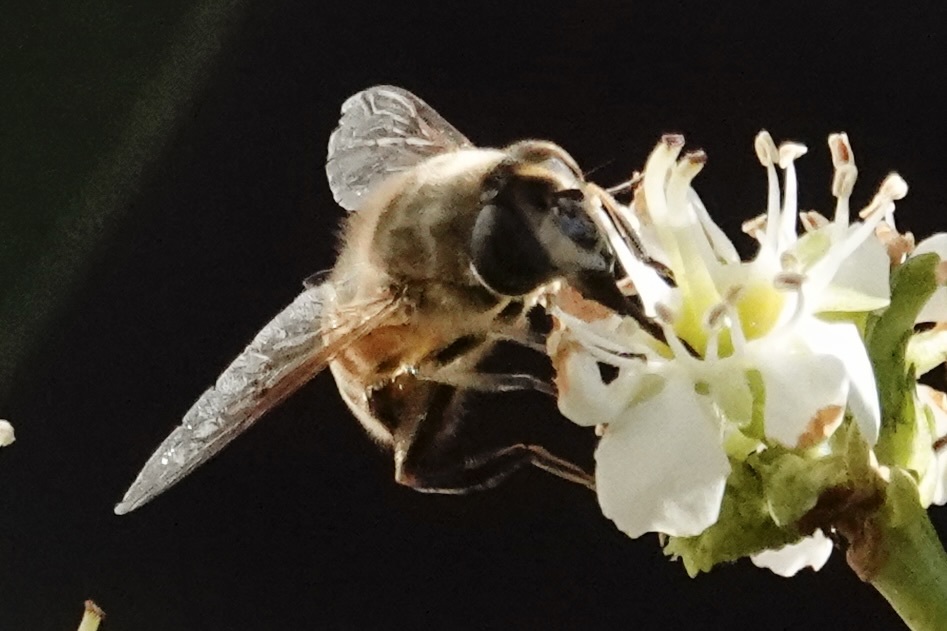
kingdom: Animalia
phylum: Arthropoda
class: Insecta
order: Diptera
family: Syrphidae
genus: Eristalis
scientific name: Eristalis tenax
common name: Drone fly
